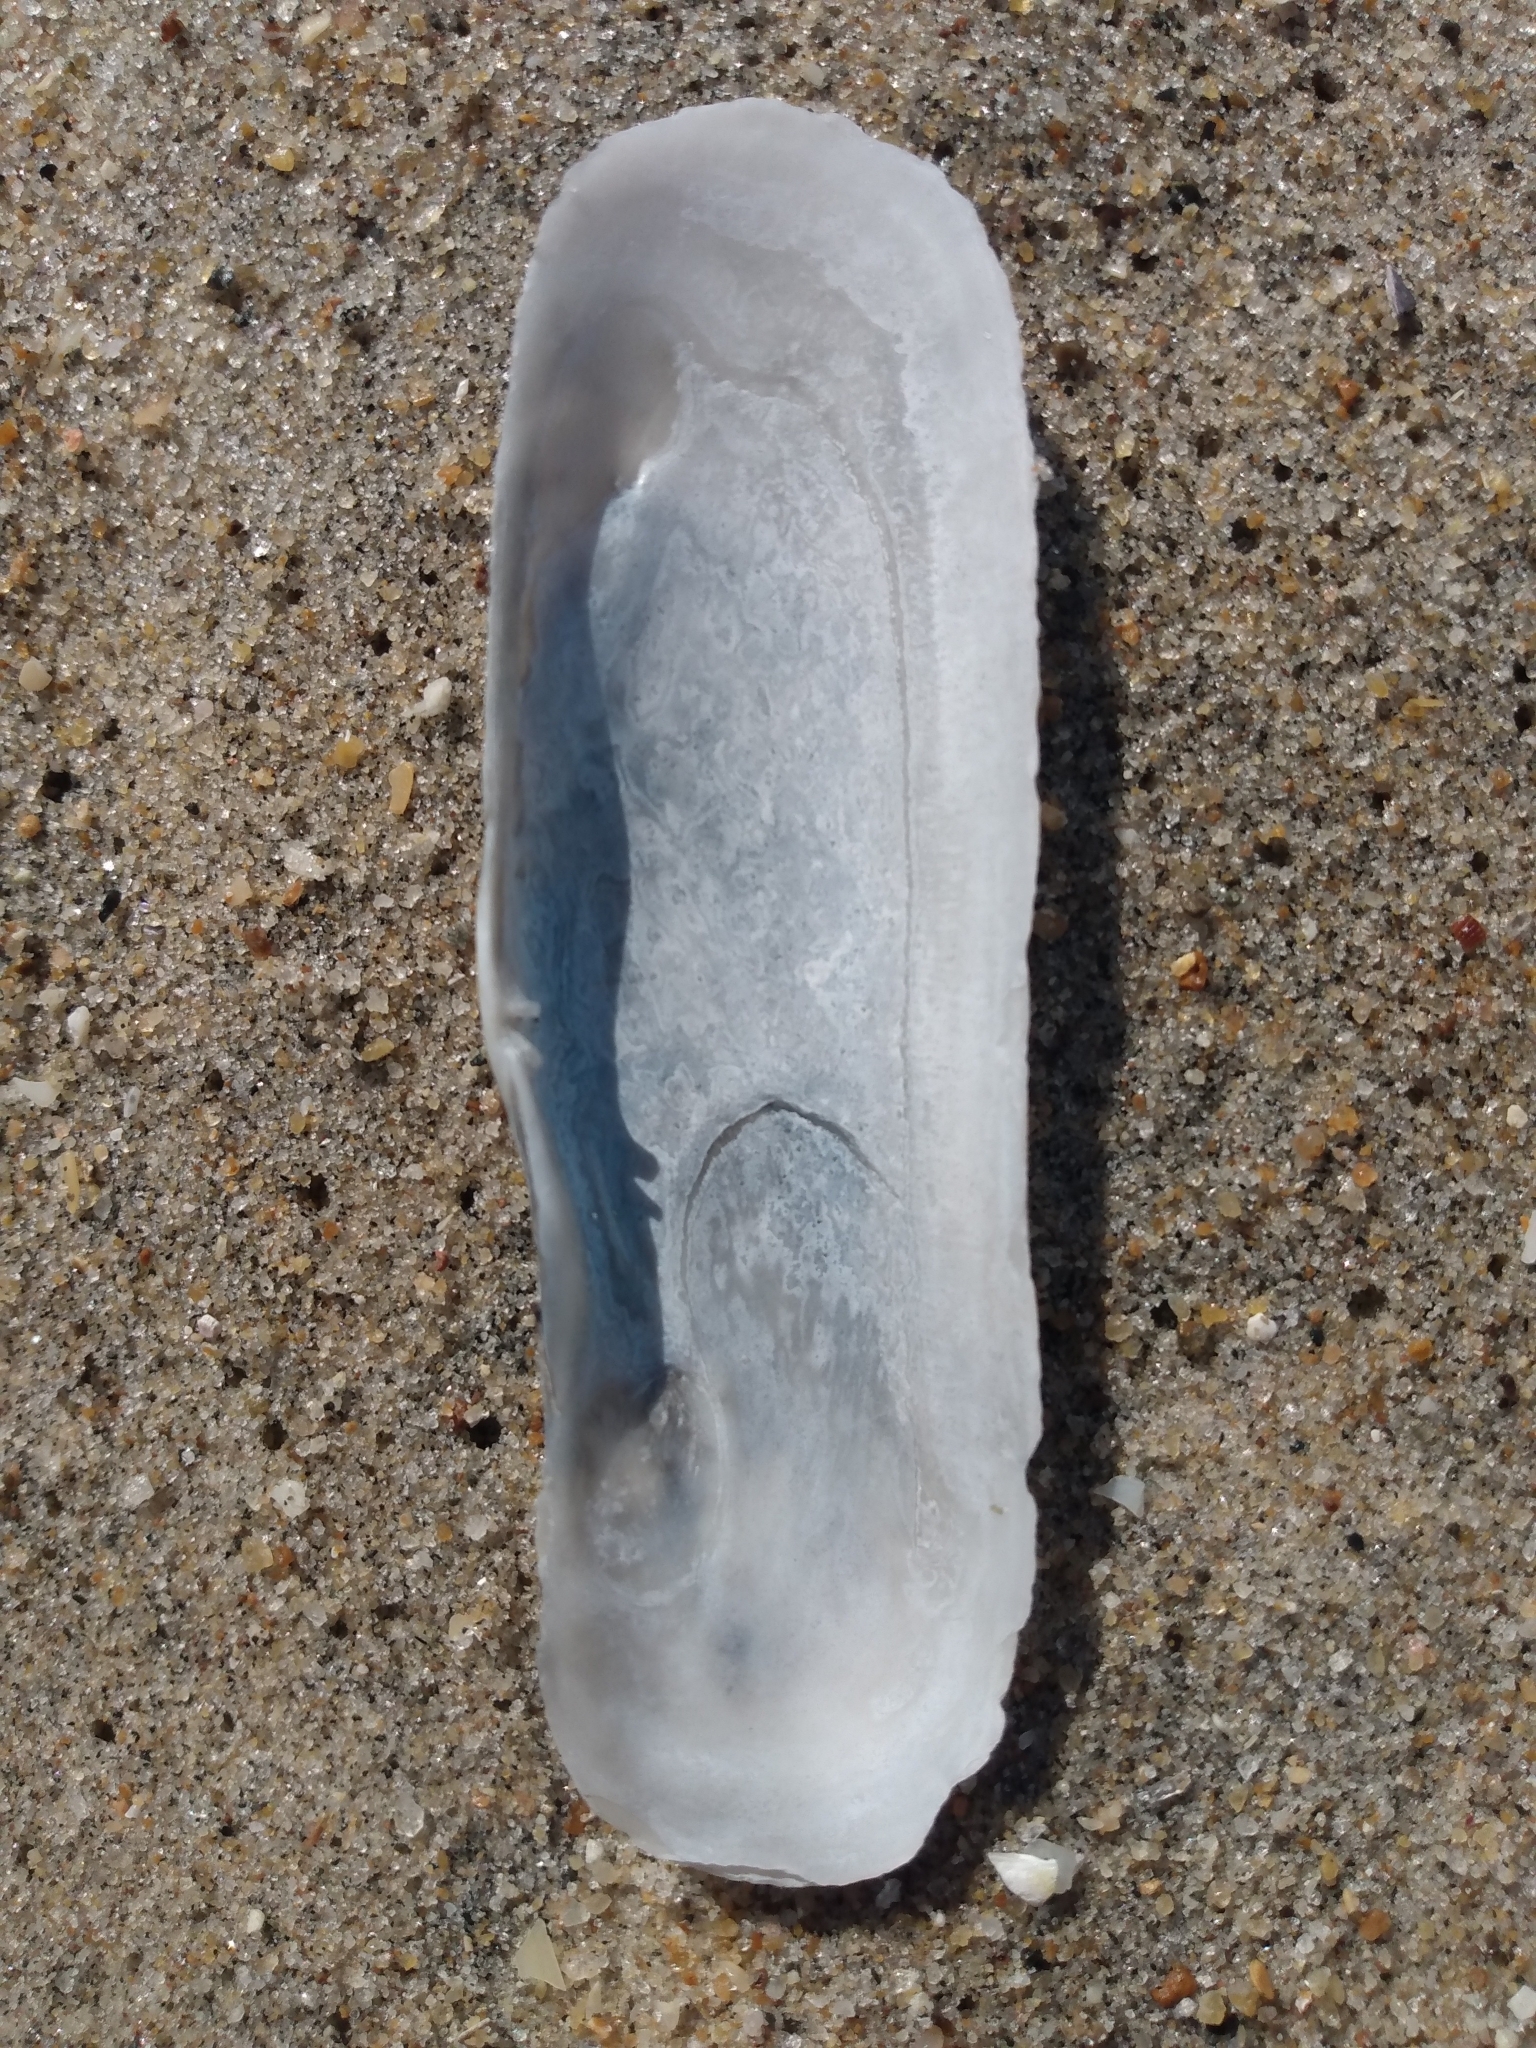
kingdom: Animalia
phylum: Mollusca
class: Bivalvia
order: Cardiida
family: Solecurtidae
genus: Tagelus
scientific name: Tagelus californianus
